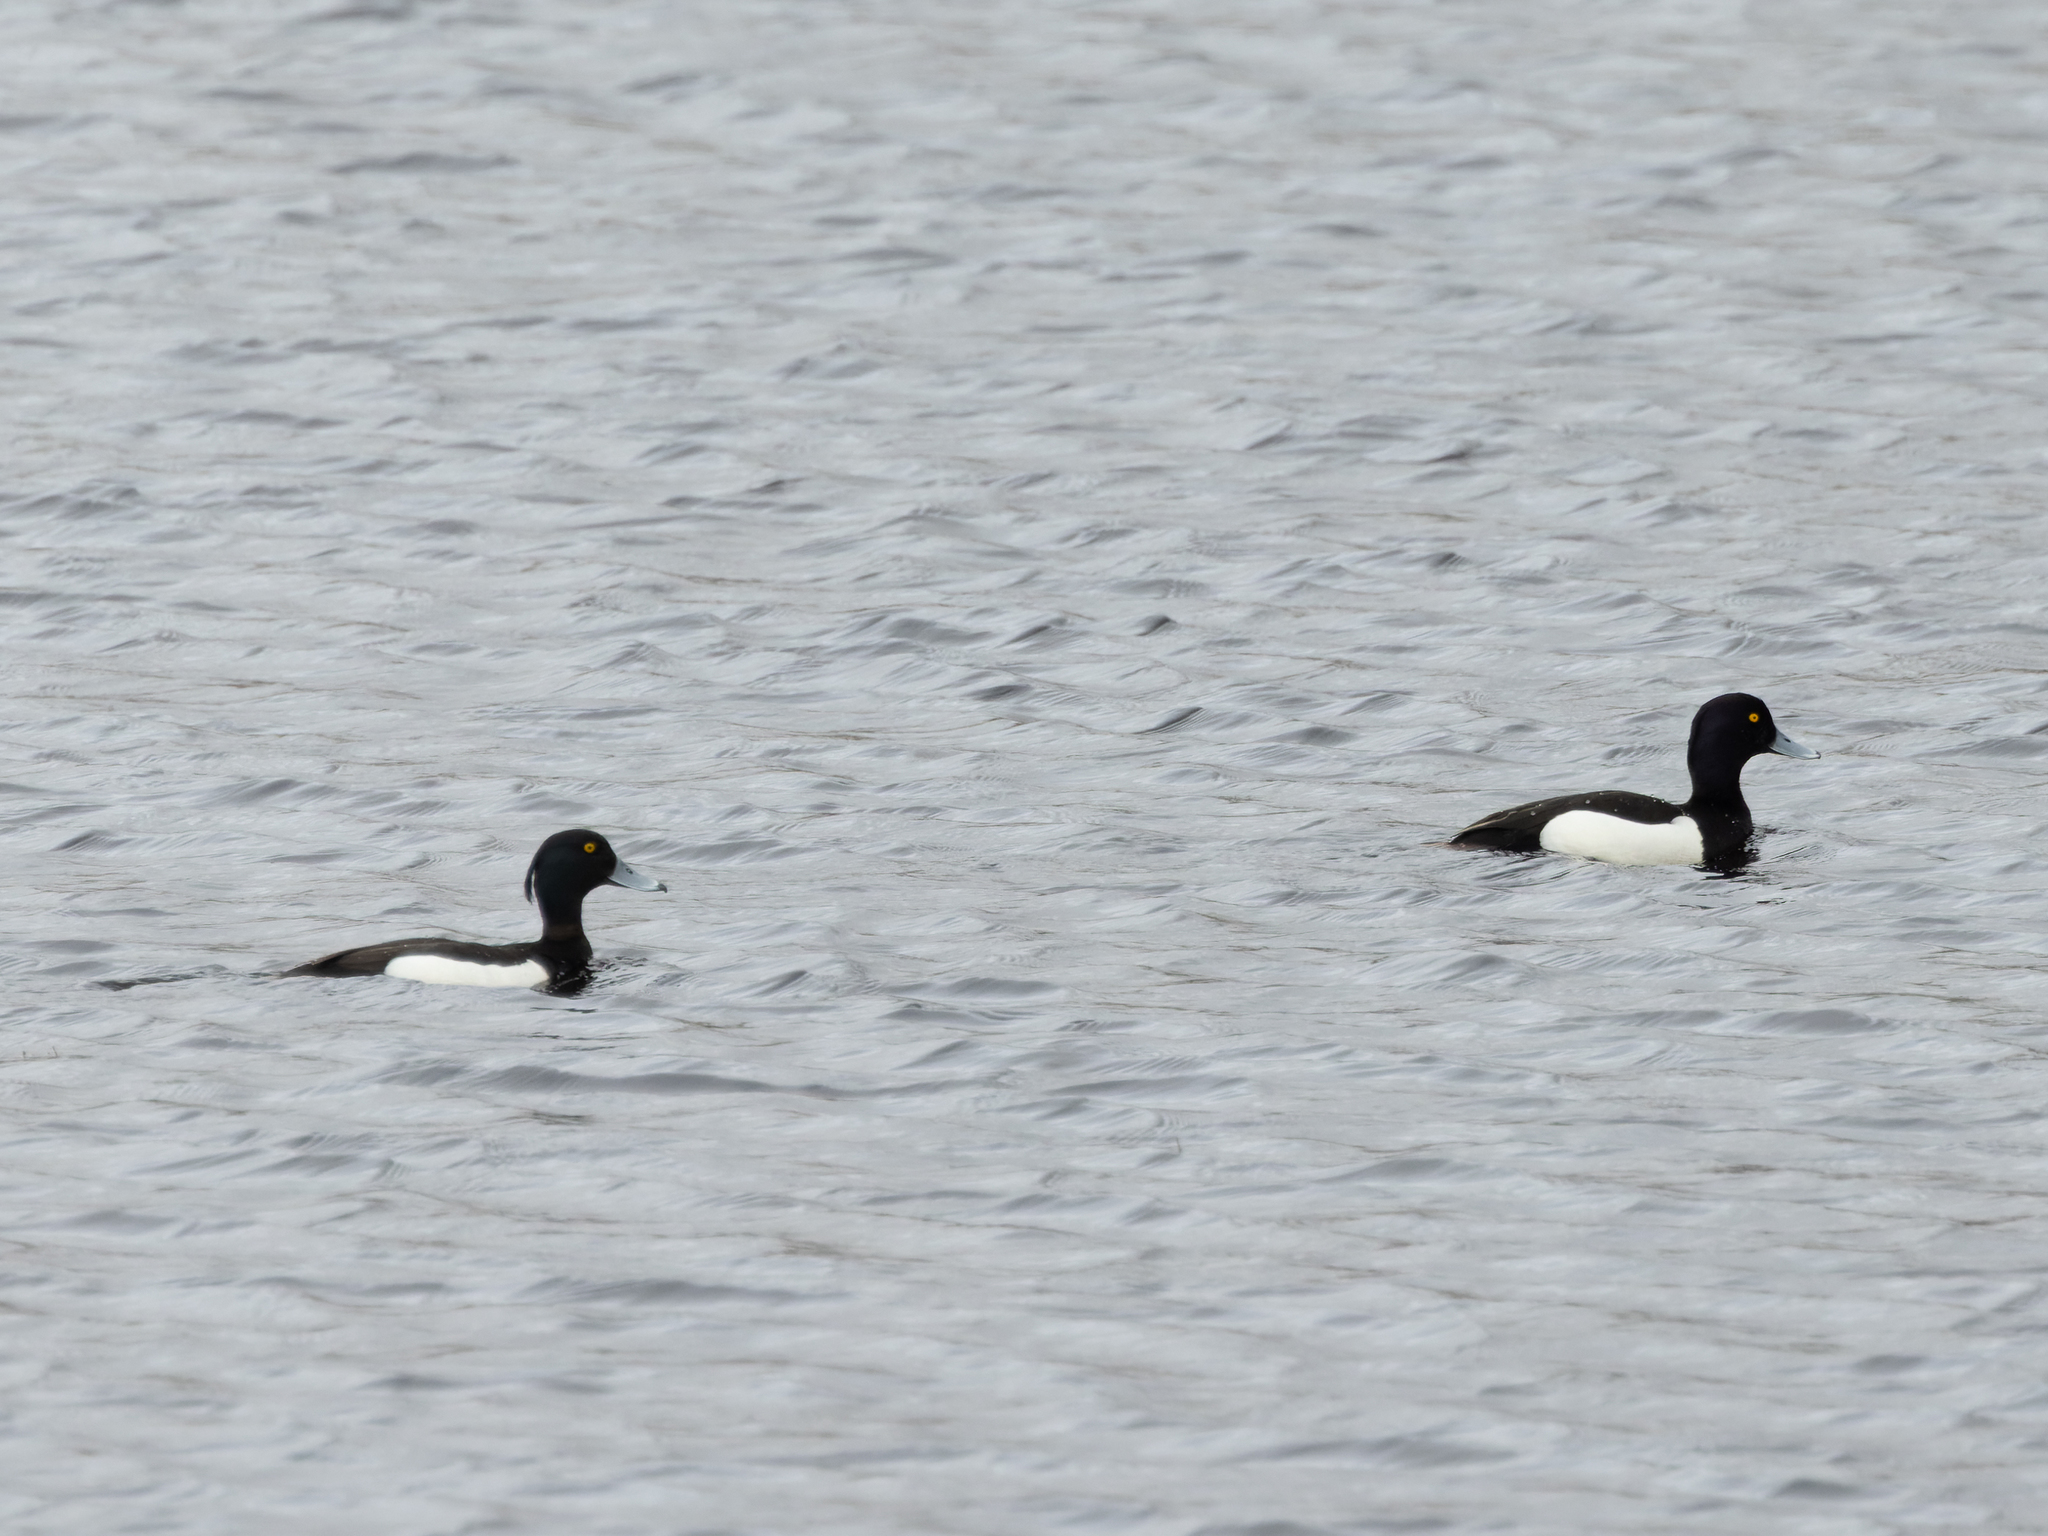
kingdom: Animalia
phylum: Chordata
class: Aves
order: Anseriformes
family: Anatidae
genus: Aythya
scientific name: Aythya fuligula
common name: Tufted duck
